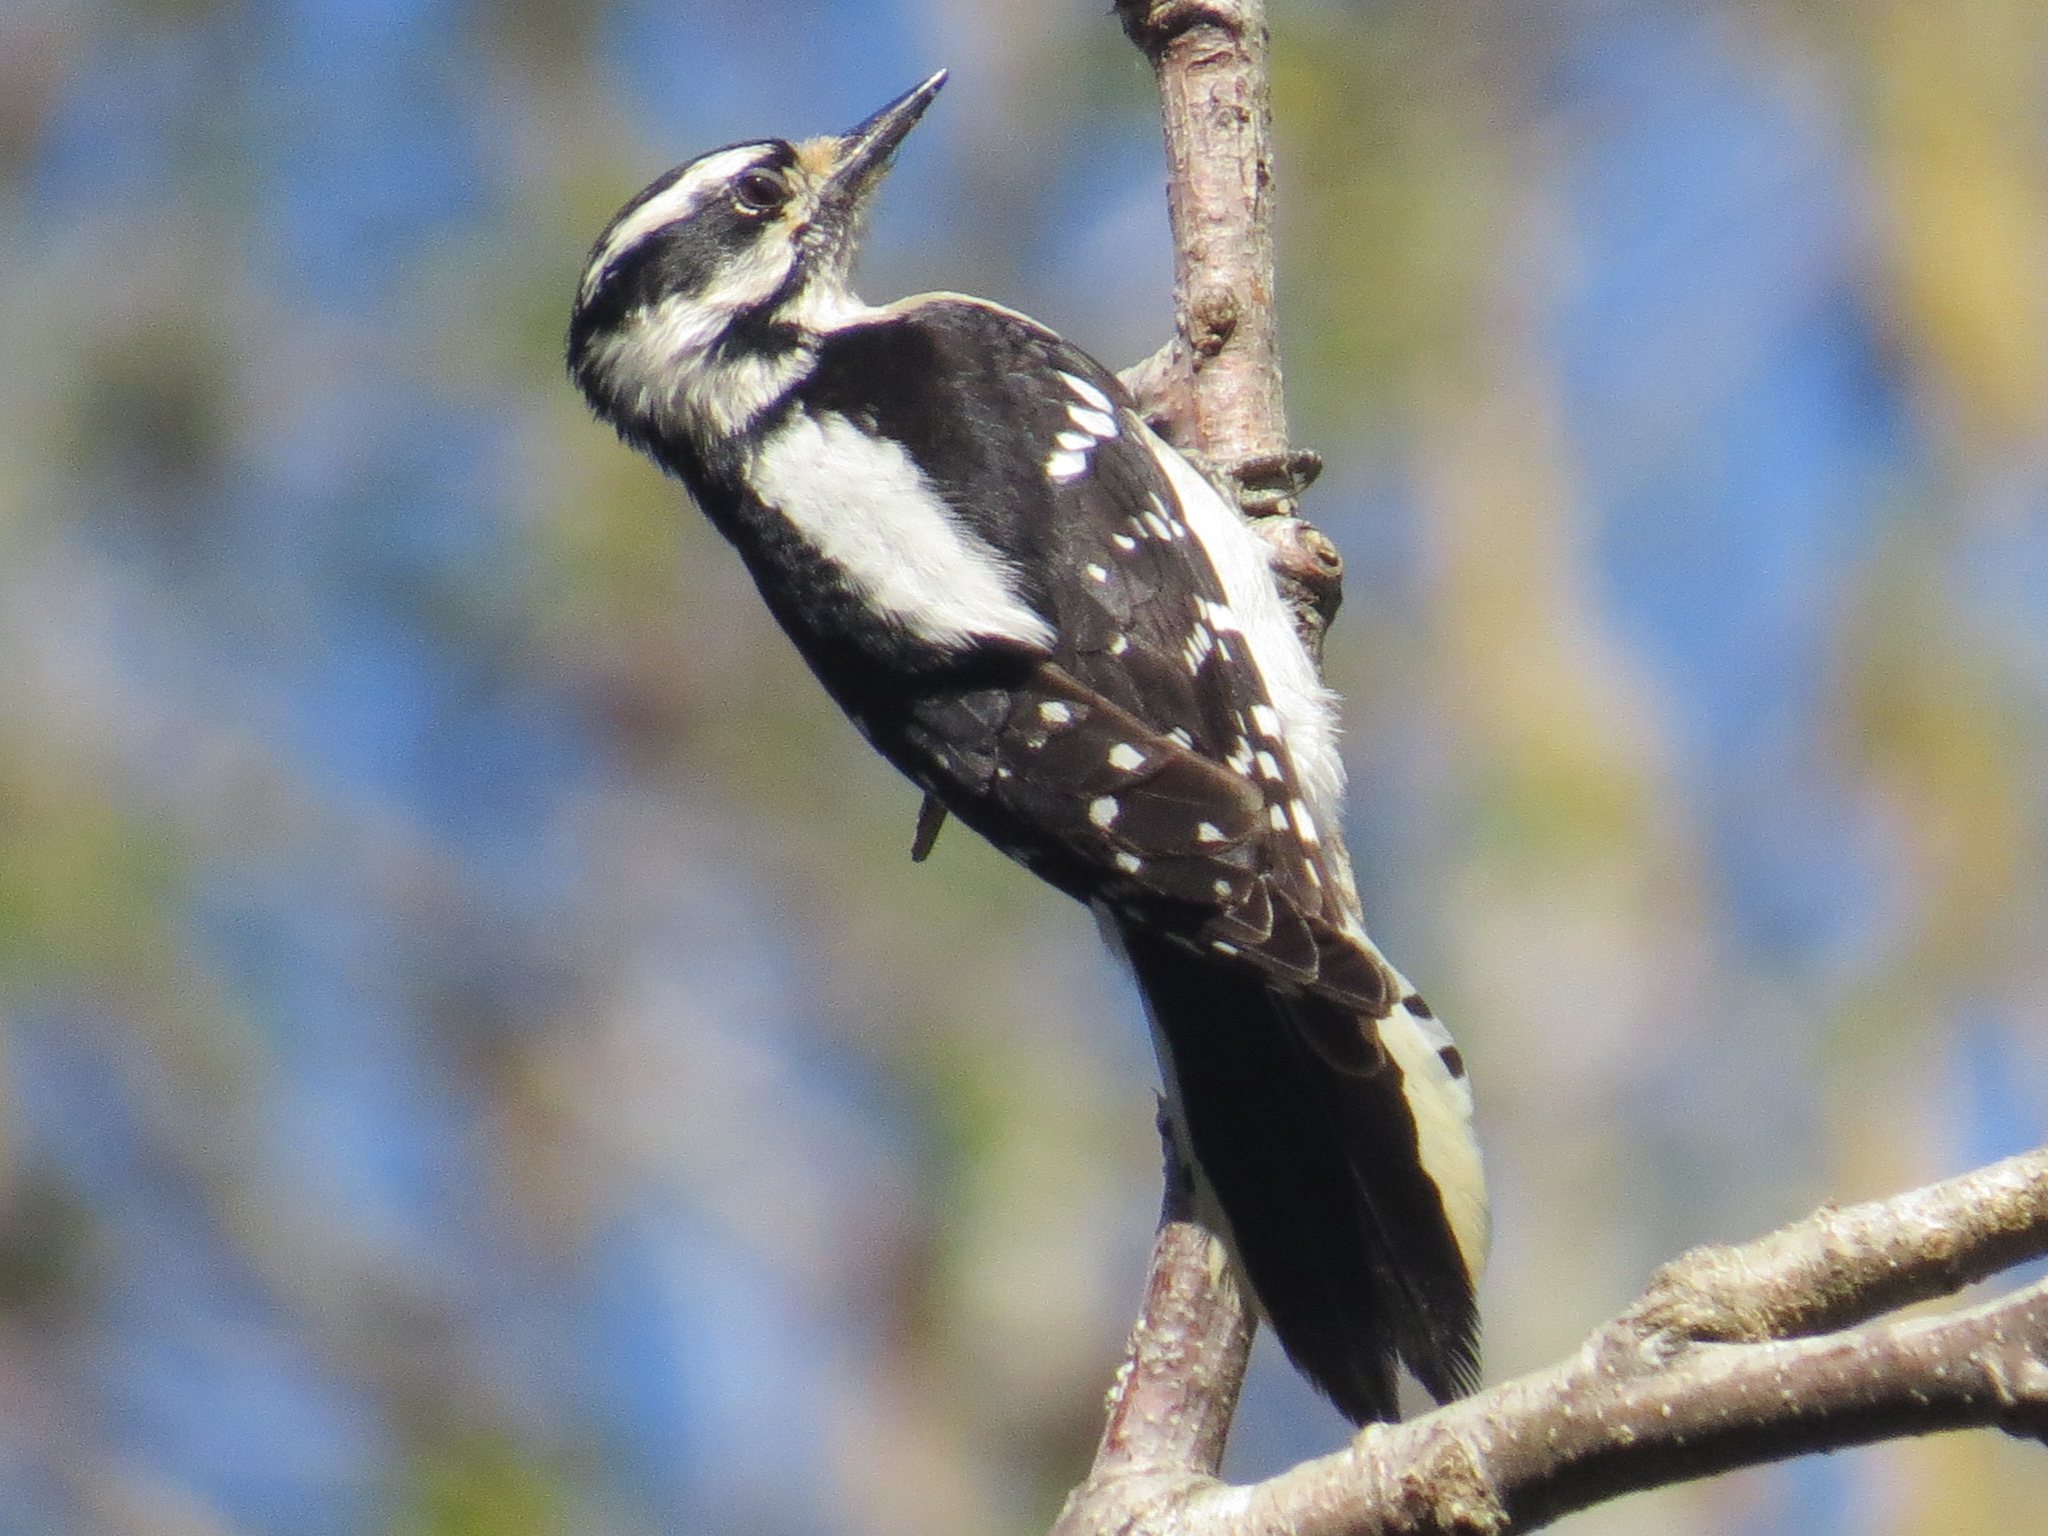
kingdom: Animalia
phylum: Chordata
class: Aves
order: Piciformes
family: Picidae
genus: Dryobates
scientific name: Dryobates pubescens
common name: Downy woodpecker
